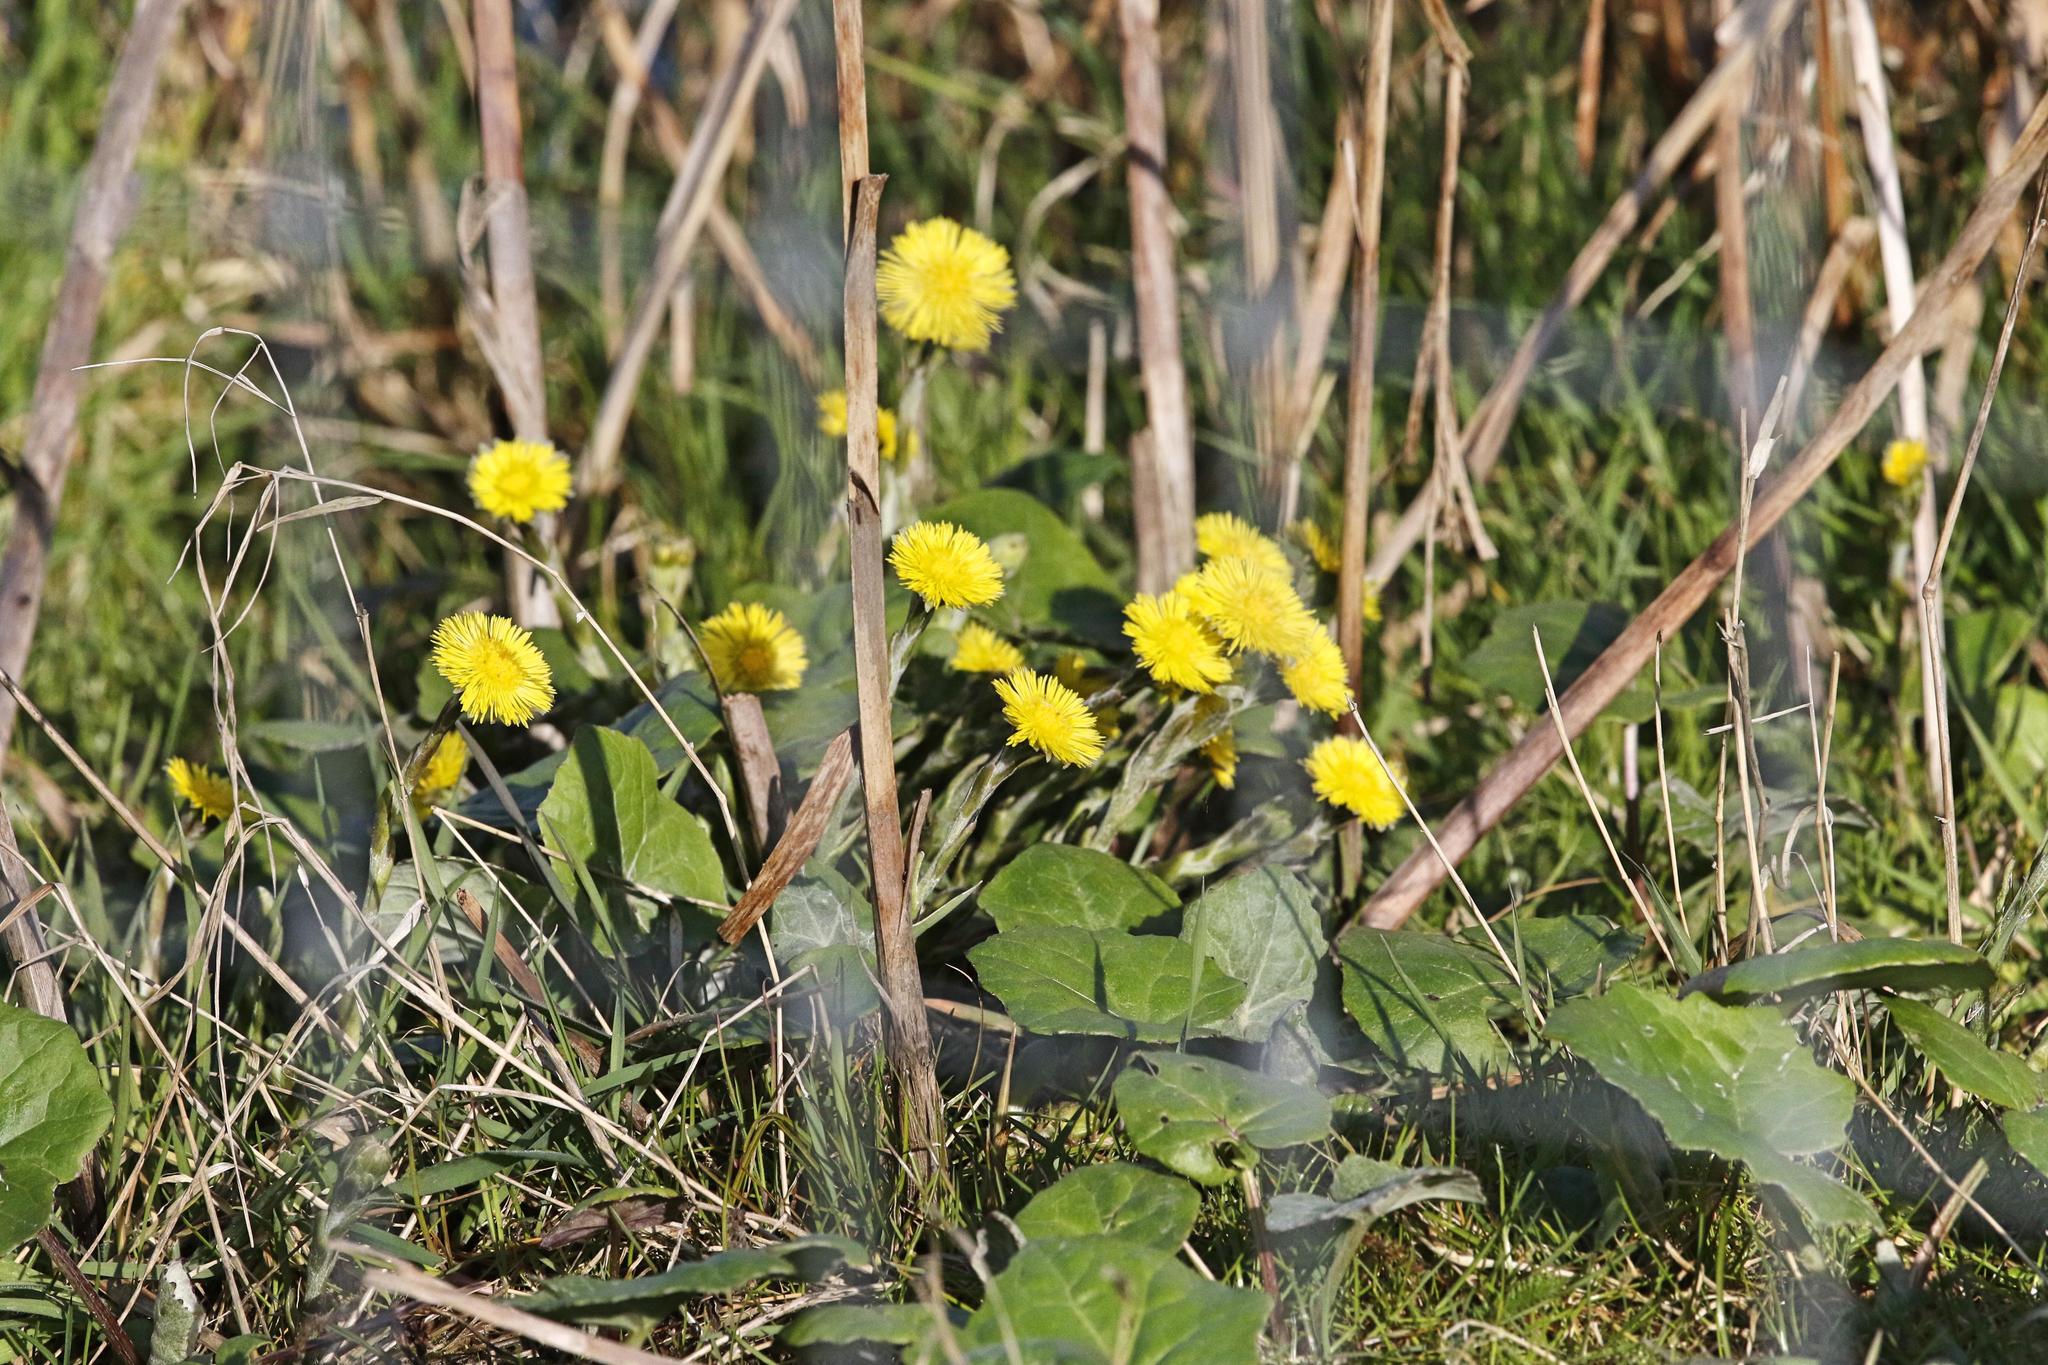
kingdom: Plantae
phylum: Tracheophyta
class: Magnoliopsida
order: Asterales
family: Asteraceae
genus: Tussilago
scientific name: Tussilago farfara
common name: Coltsfoot
